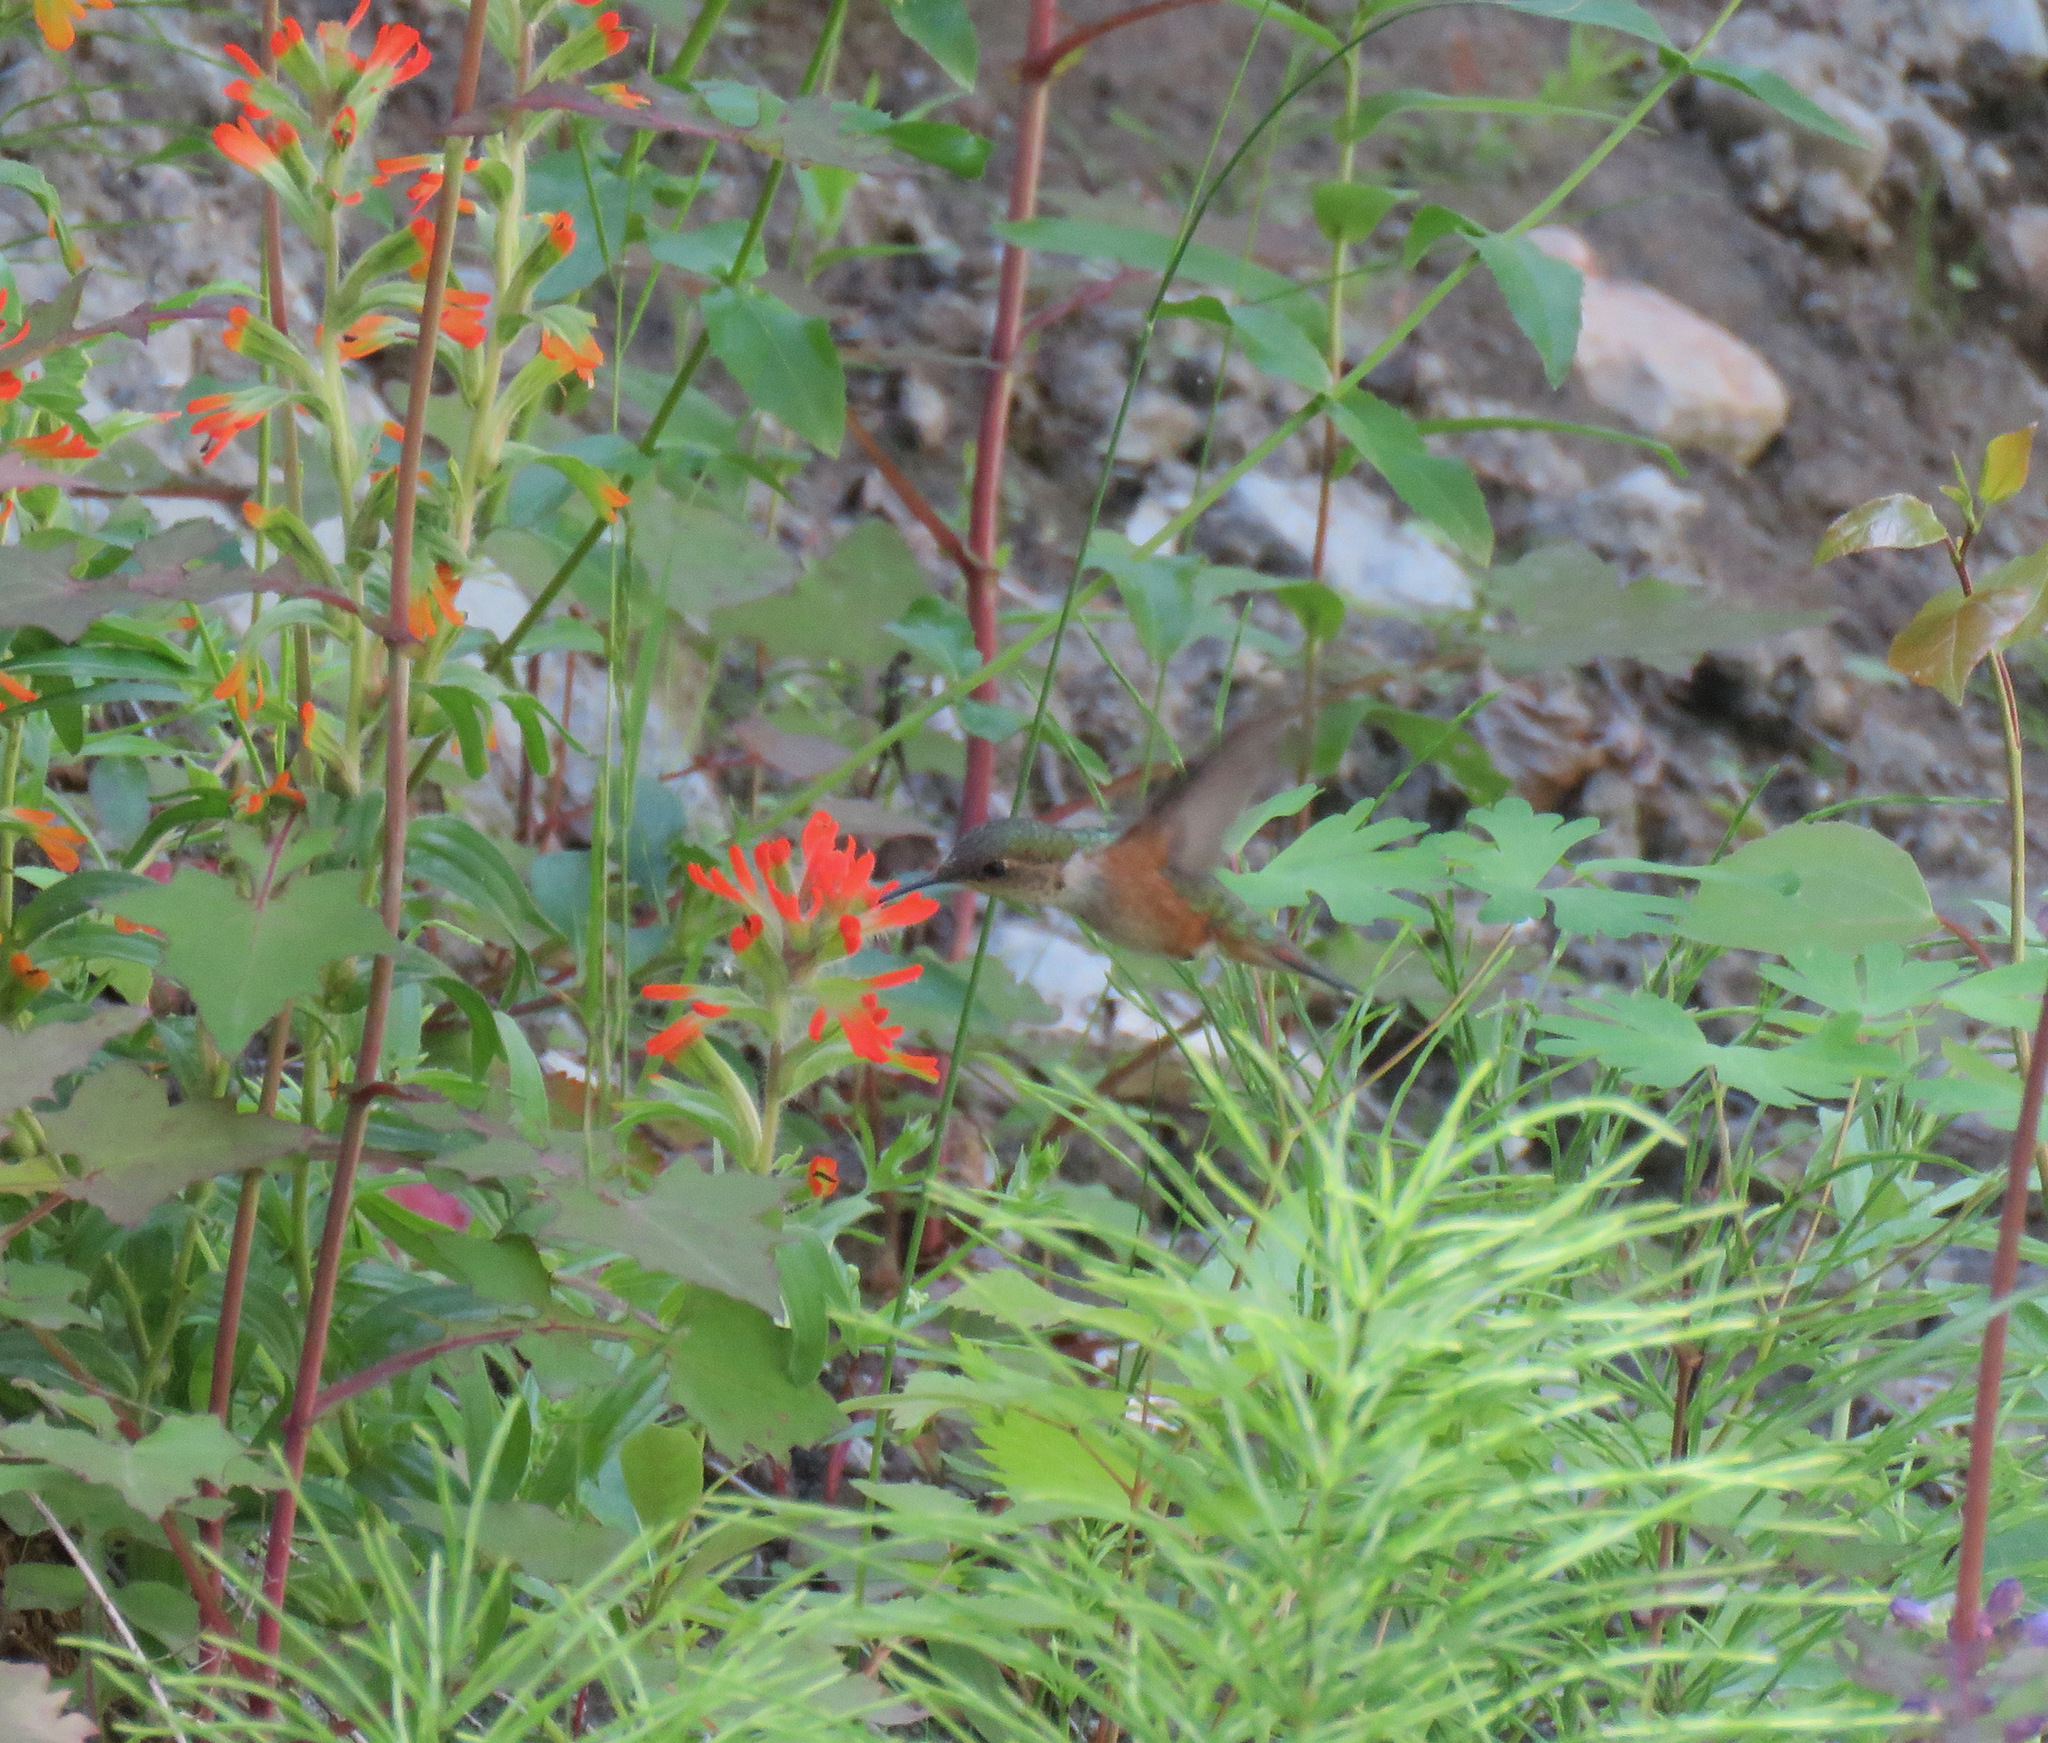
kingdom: Animalia
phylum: Chordata
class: Aves
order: Apodiformes
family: Trochilidae
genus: Selasphorus
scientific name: Selasphorus rufus
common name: Rufous hummingbird
